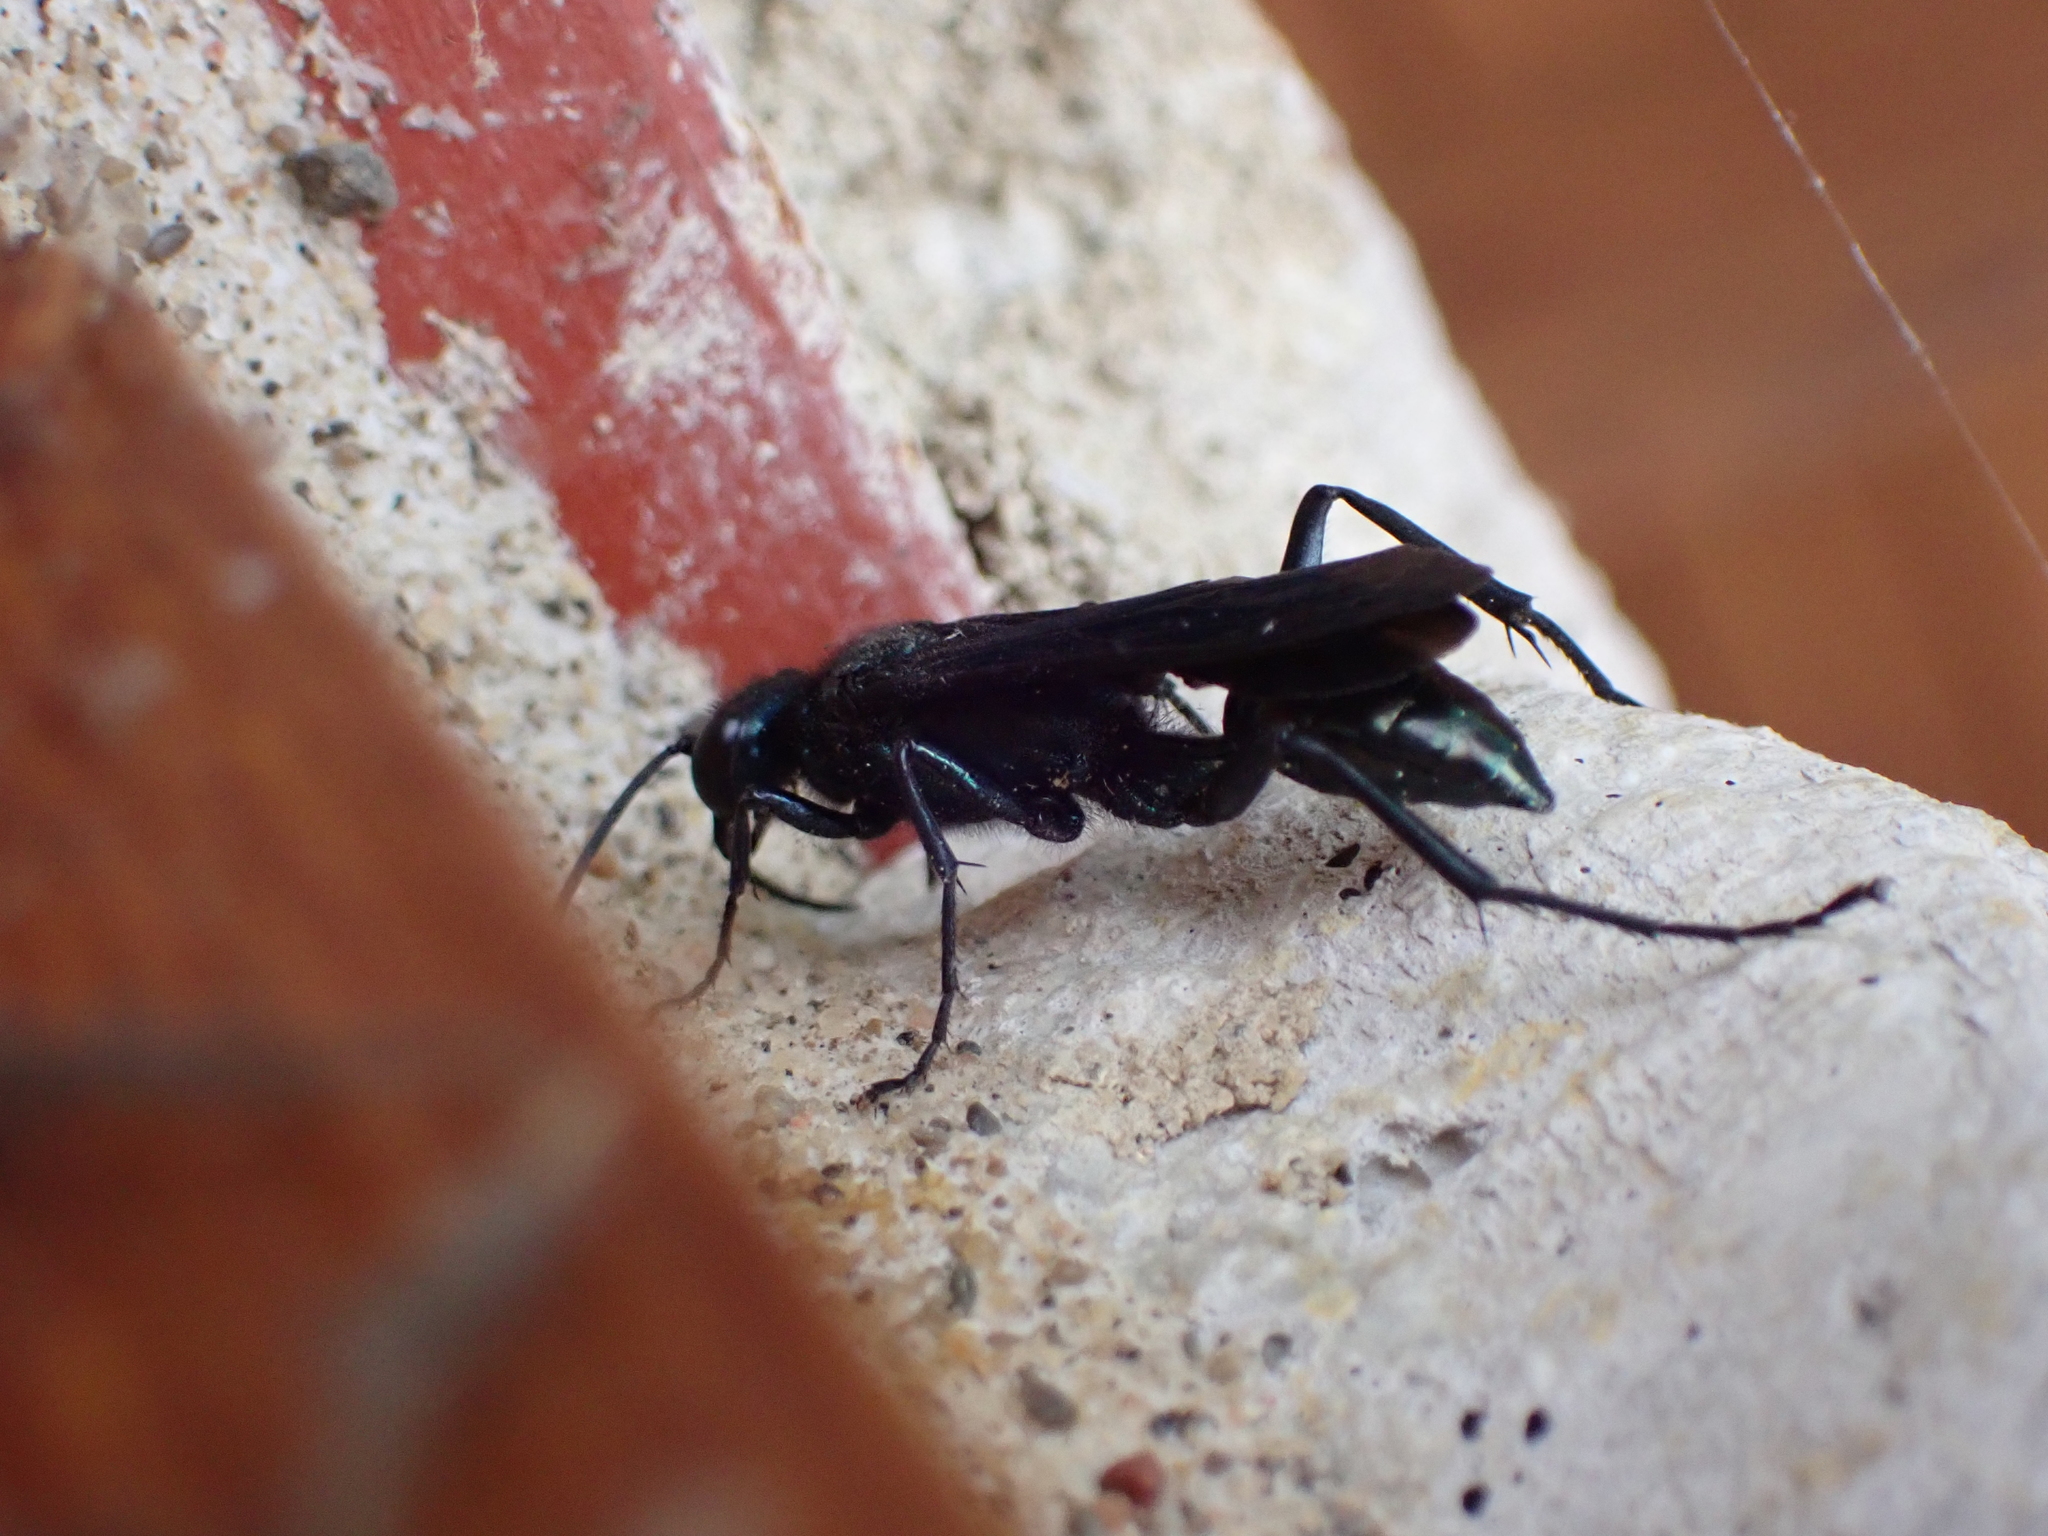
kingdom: Animalia
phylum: Arthropoda
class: Insecta
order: Hymenoptera
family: Sphecidae
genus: Chalybion
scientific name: Chalybion californicum
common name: Mud dauber
